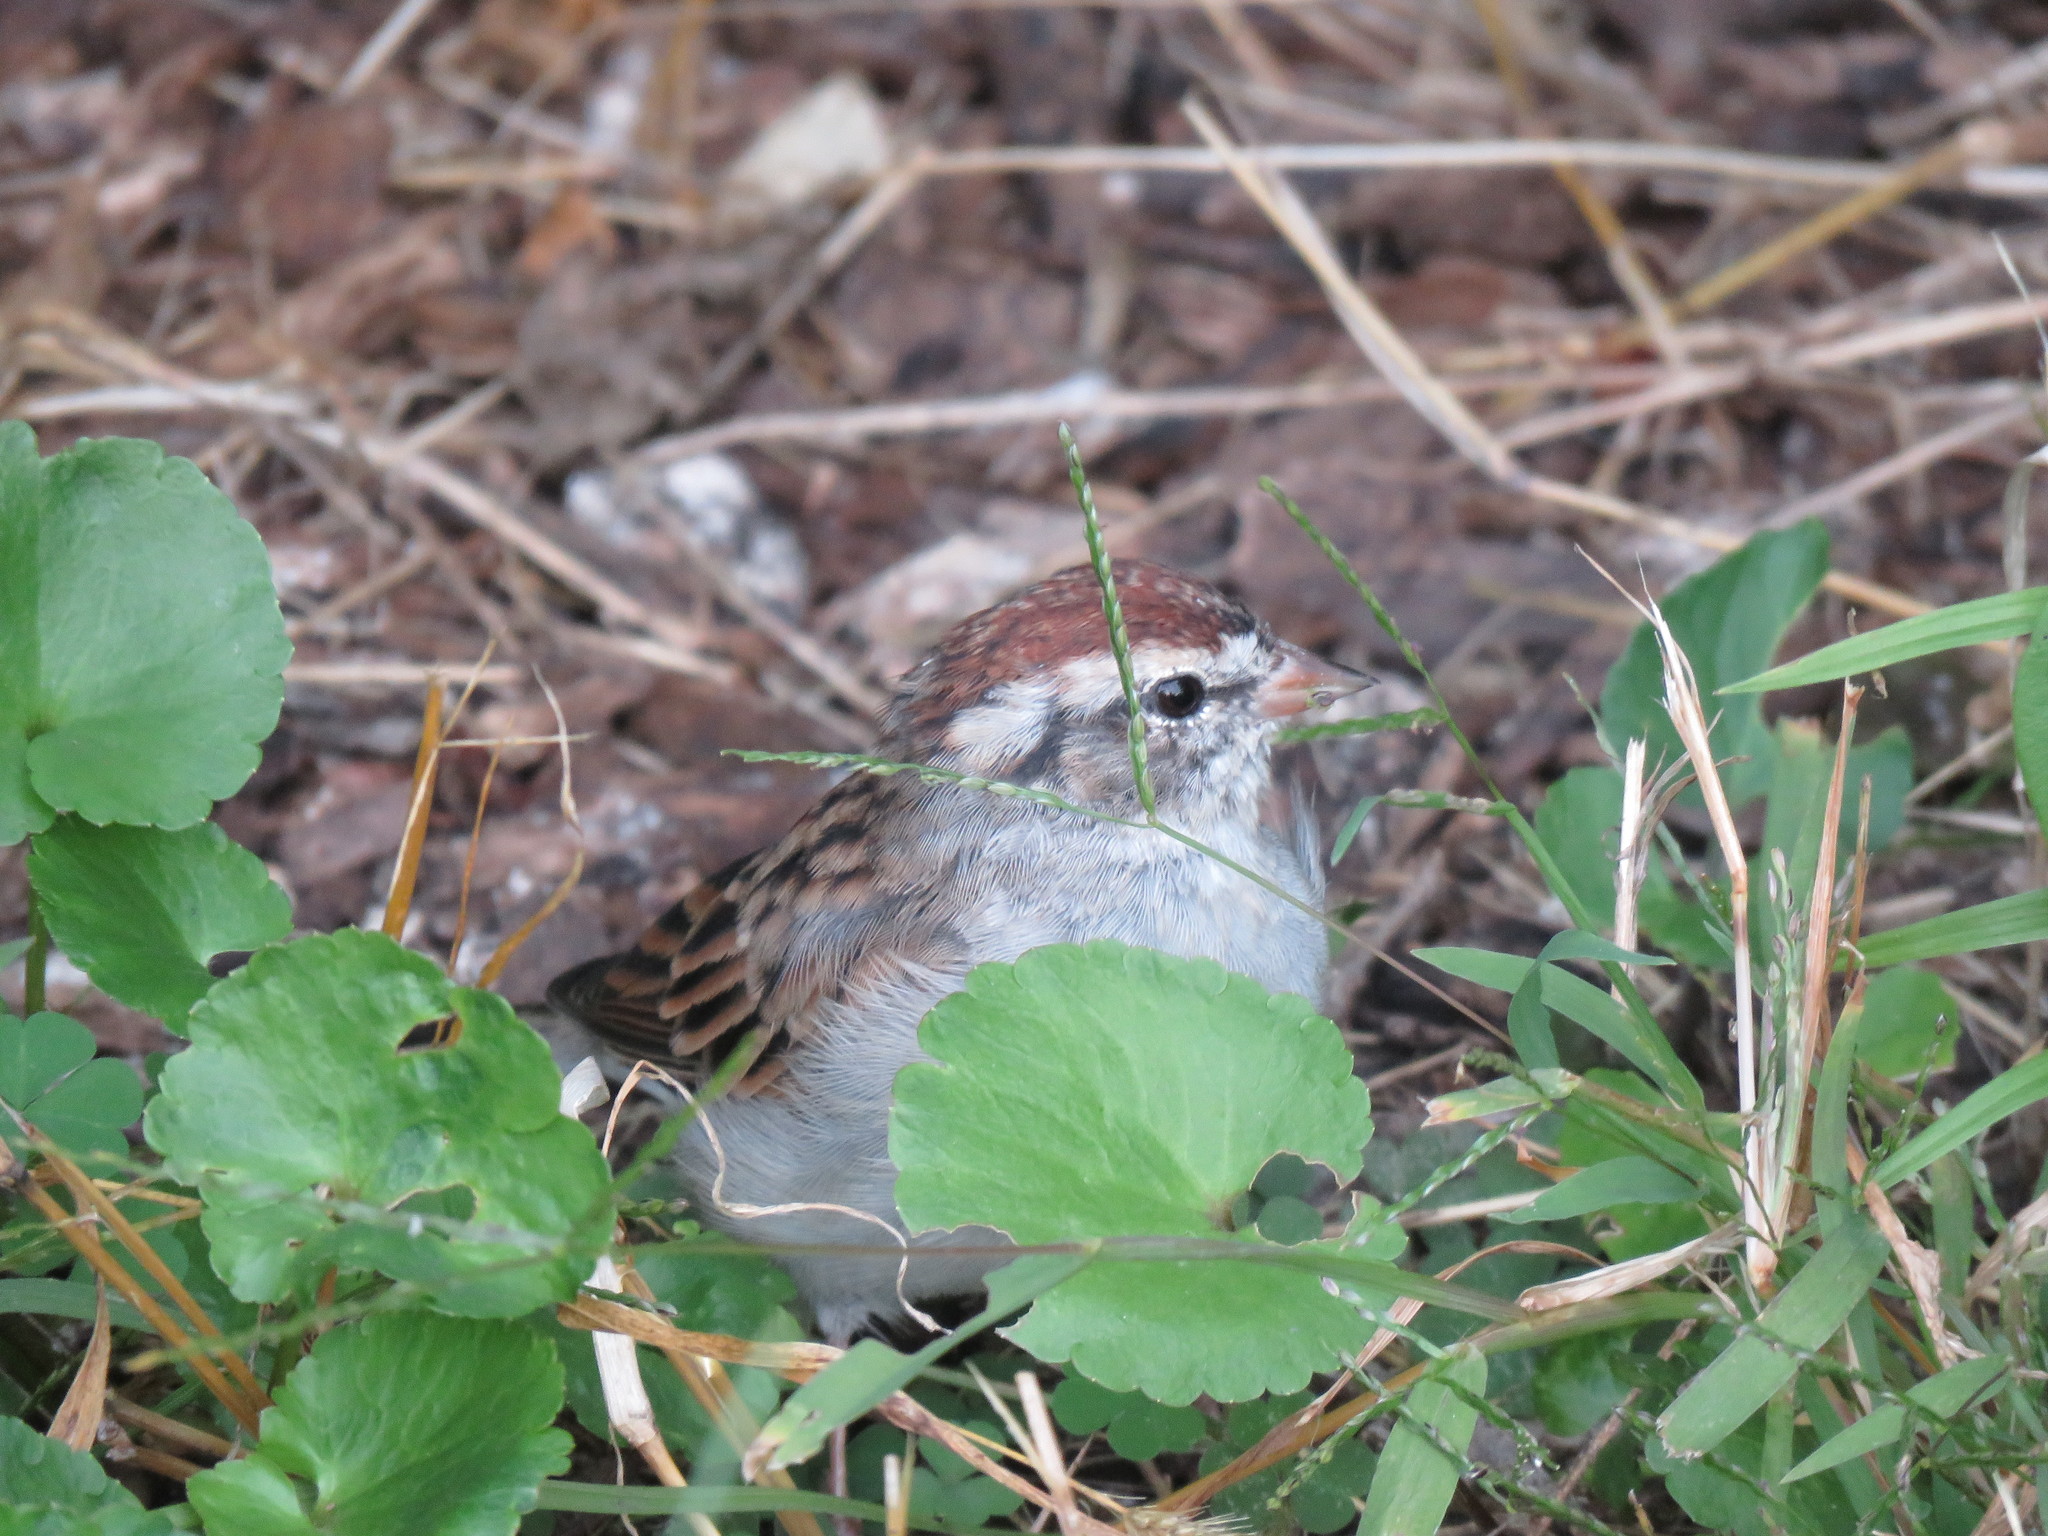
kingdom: Animalia
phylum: Chordata
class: Aves
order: Passeriformes
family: Passerellidae
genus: Spizella
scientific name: Spizella passerina
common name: Chipping sparrow
